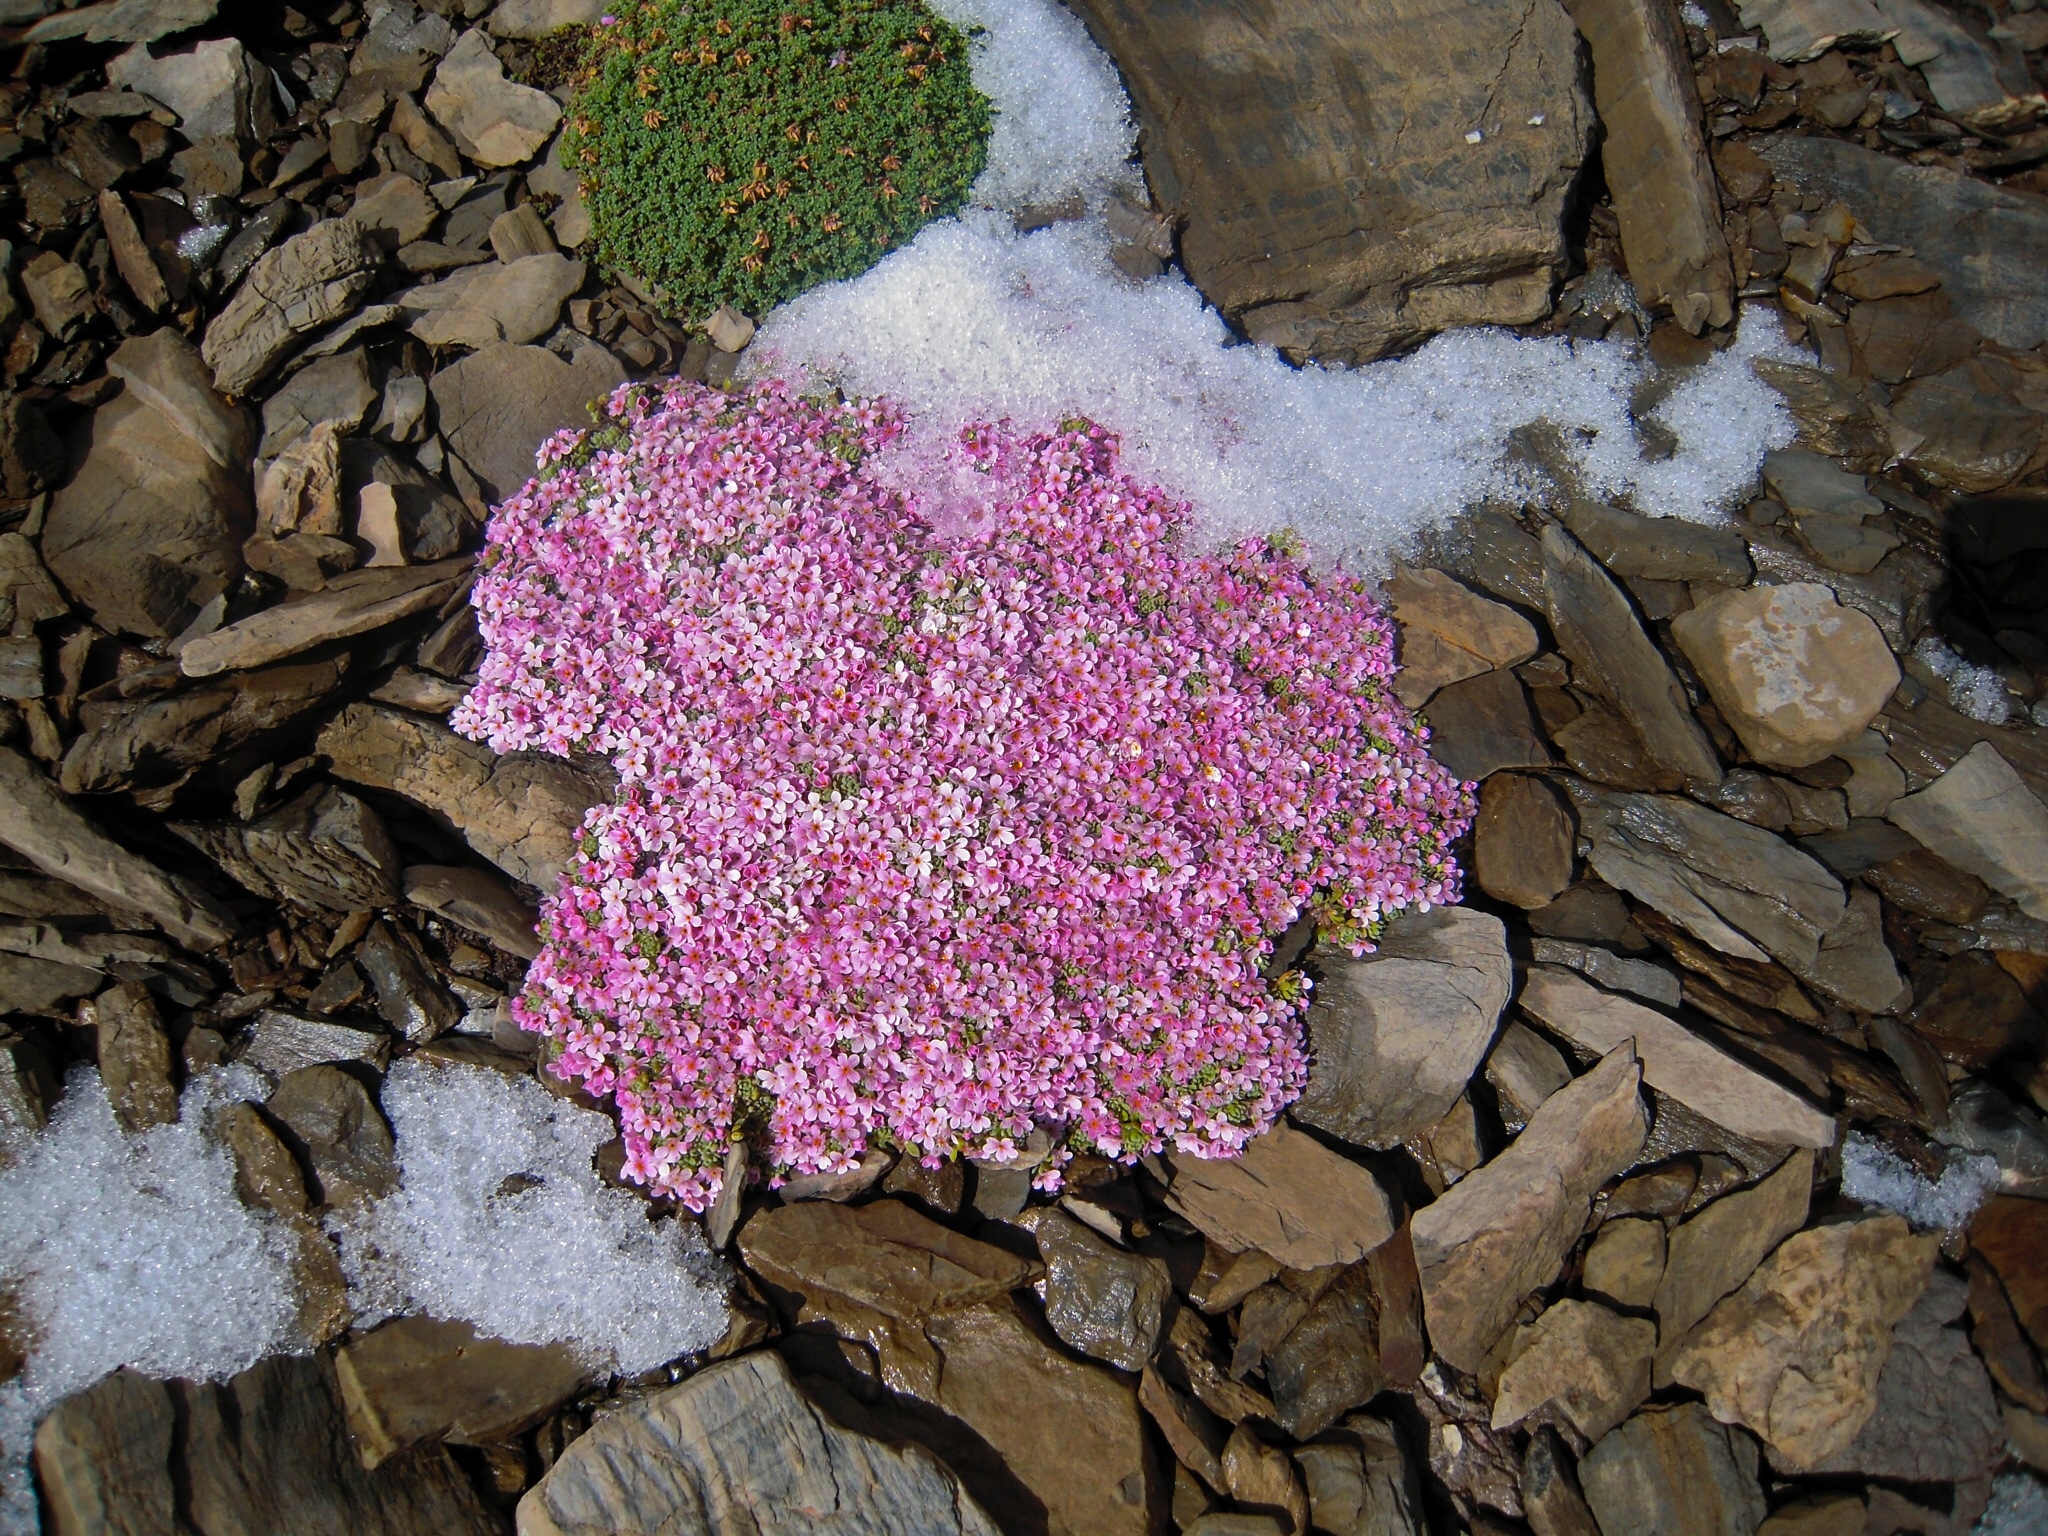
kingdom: Plantae
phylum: Tracheophyta
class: Magnoliopsida
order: Ericales
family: Primulaceae
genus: Androsace
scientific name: Androsace alpina
